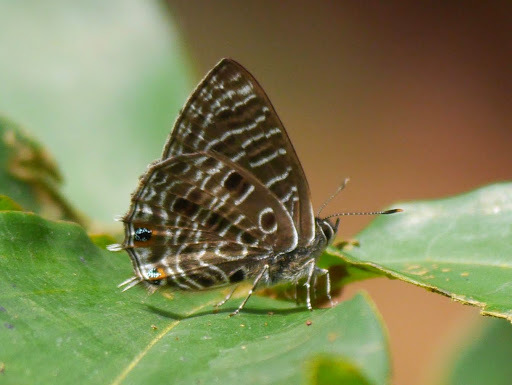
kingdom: Animalia
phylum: Arthropoda
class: Insecta
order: Lepidoptera
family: Lycaenidae
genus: Anthene
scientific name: Anthene larydas
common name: Forest hairtail
